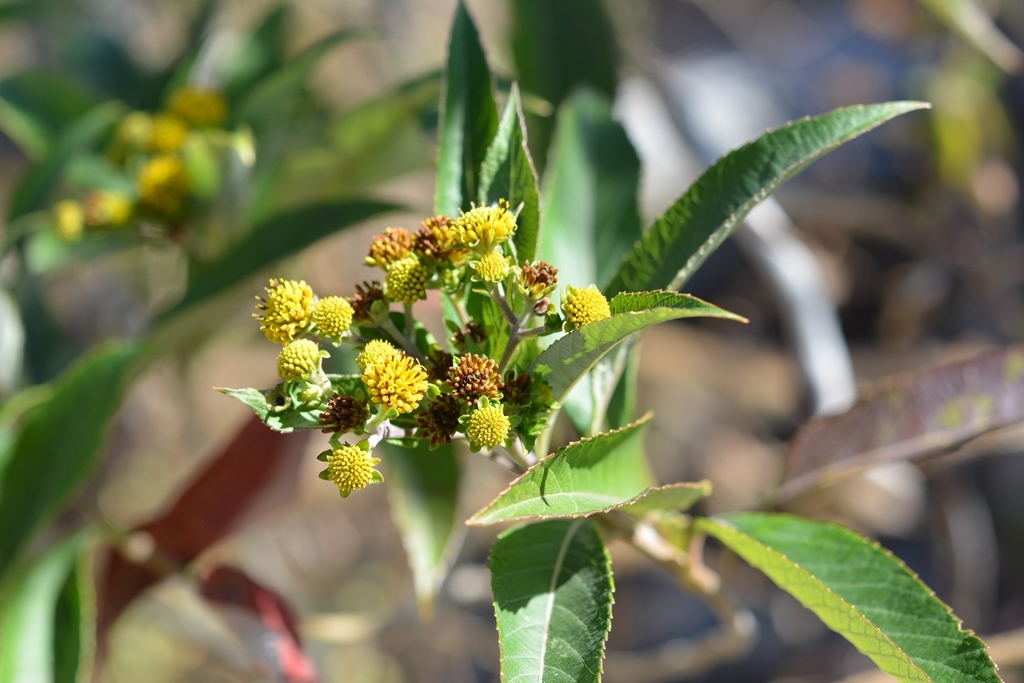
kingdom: Plantae
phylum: Tracheophyta
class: Magnoliopsida
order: Asterales
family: Asteraceae
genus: Verbesina
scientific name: Verbesina hypargyrea
